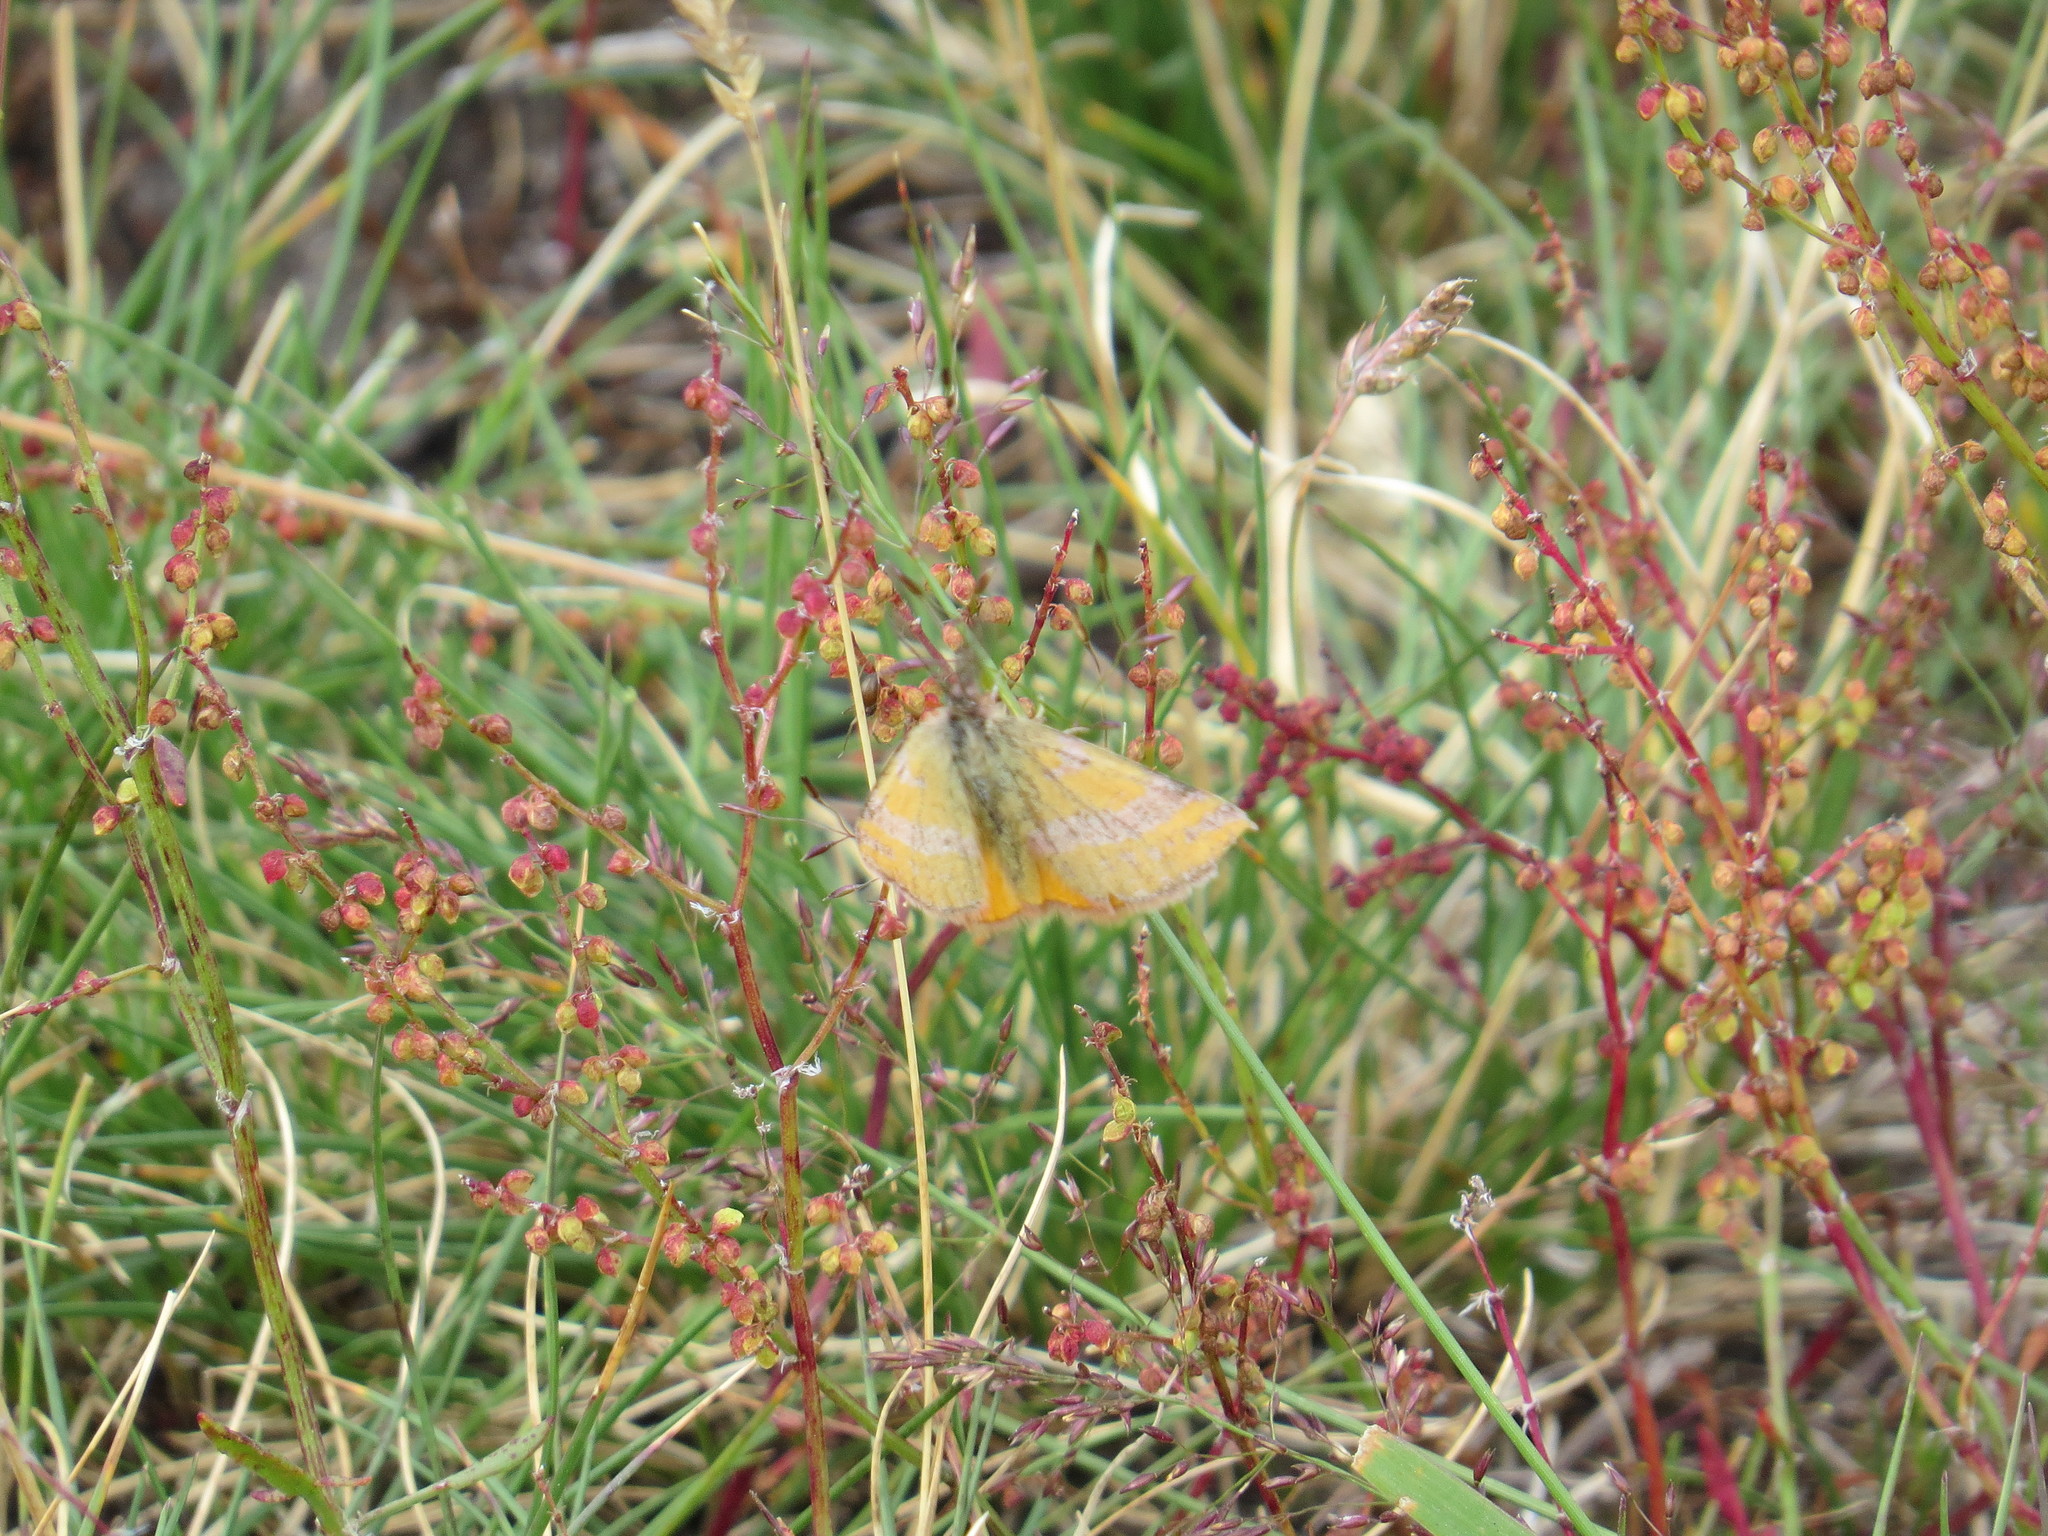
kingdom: Animalia
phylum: Arthropoda
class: Insecta
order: Lepidoptera
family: Geometridae
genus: Lythria
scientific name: Lythria cruentaria
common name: Purple-barred yellow
